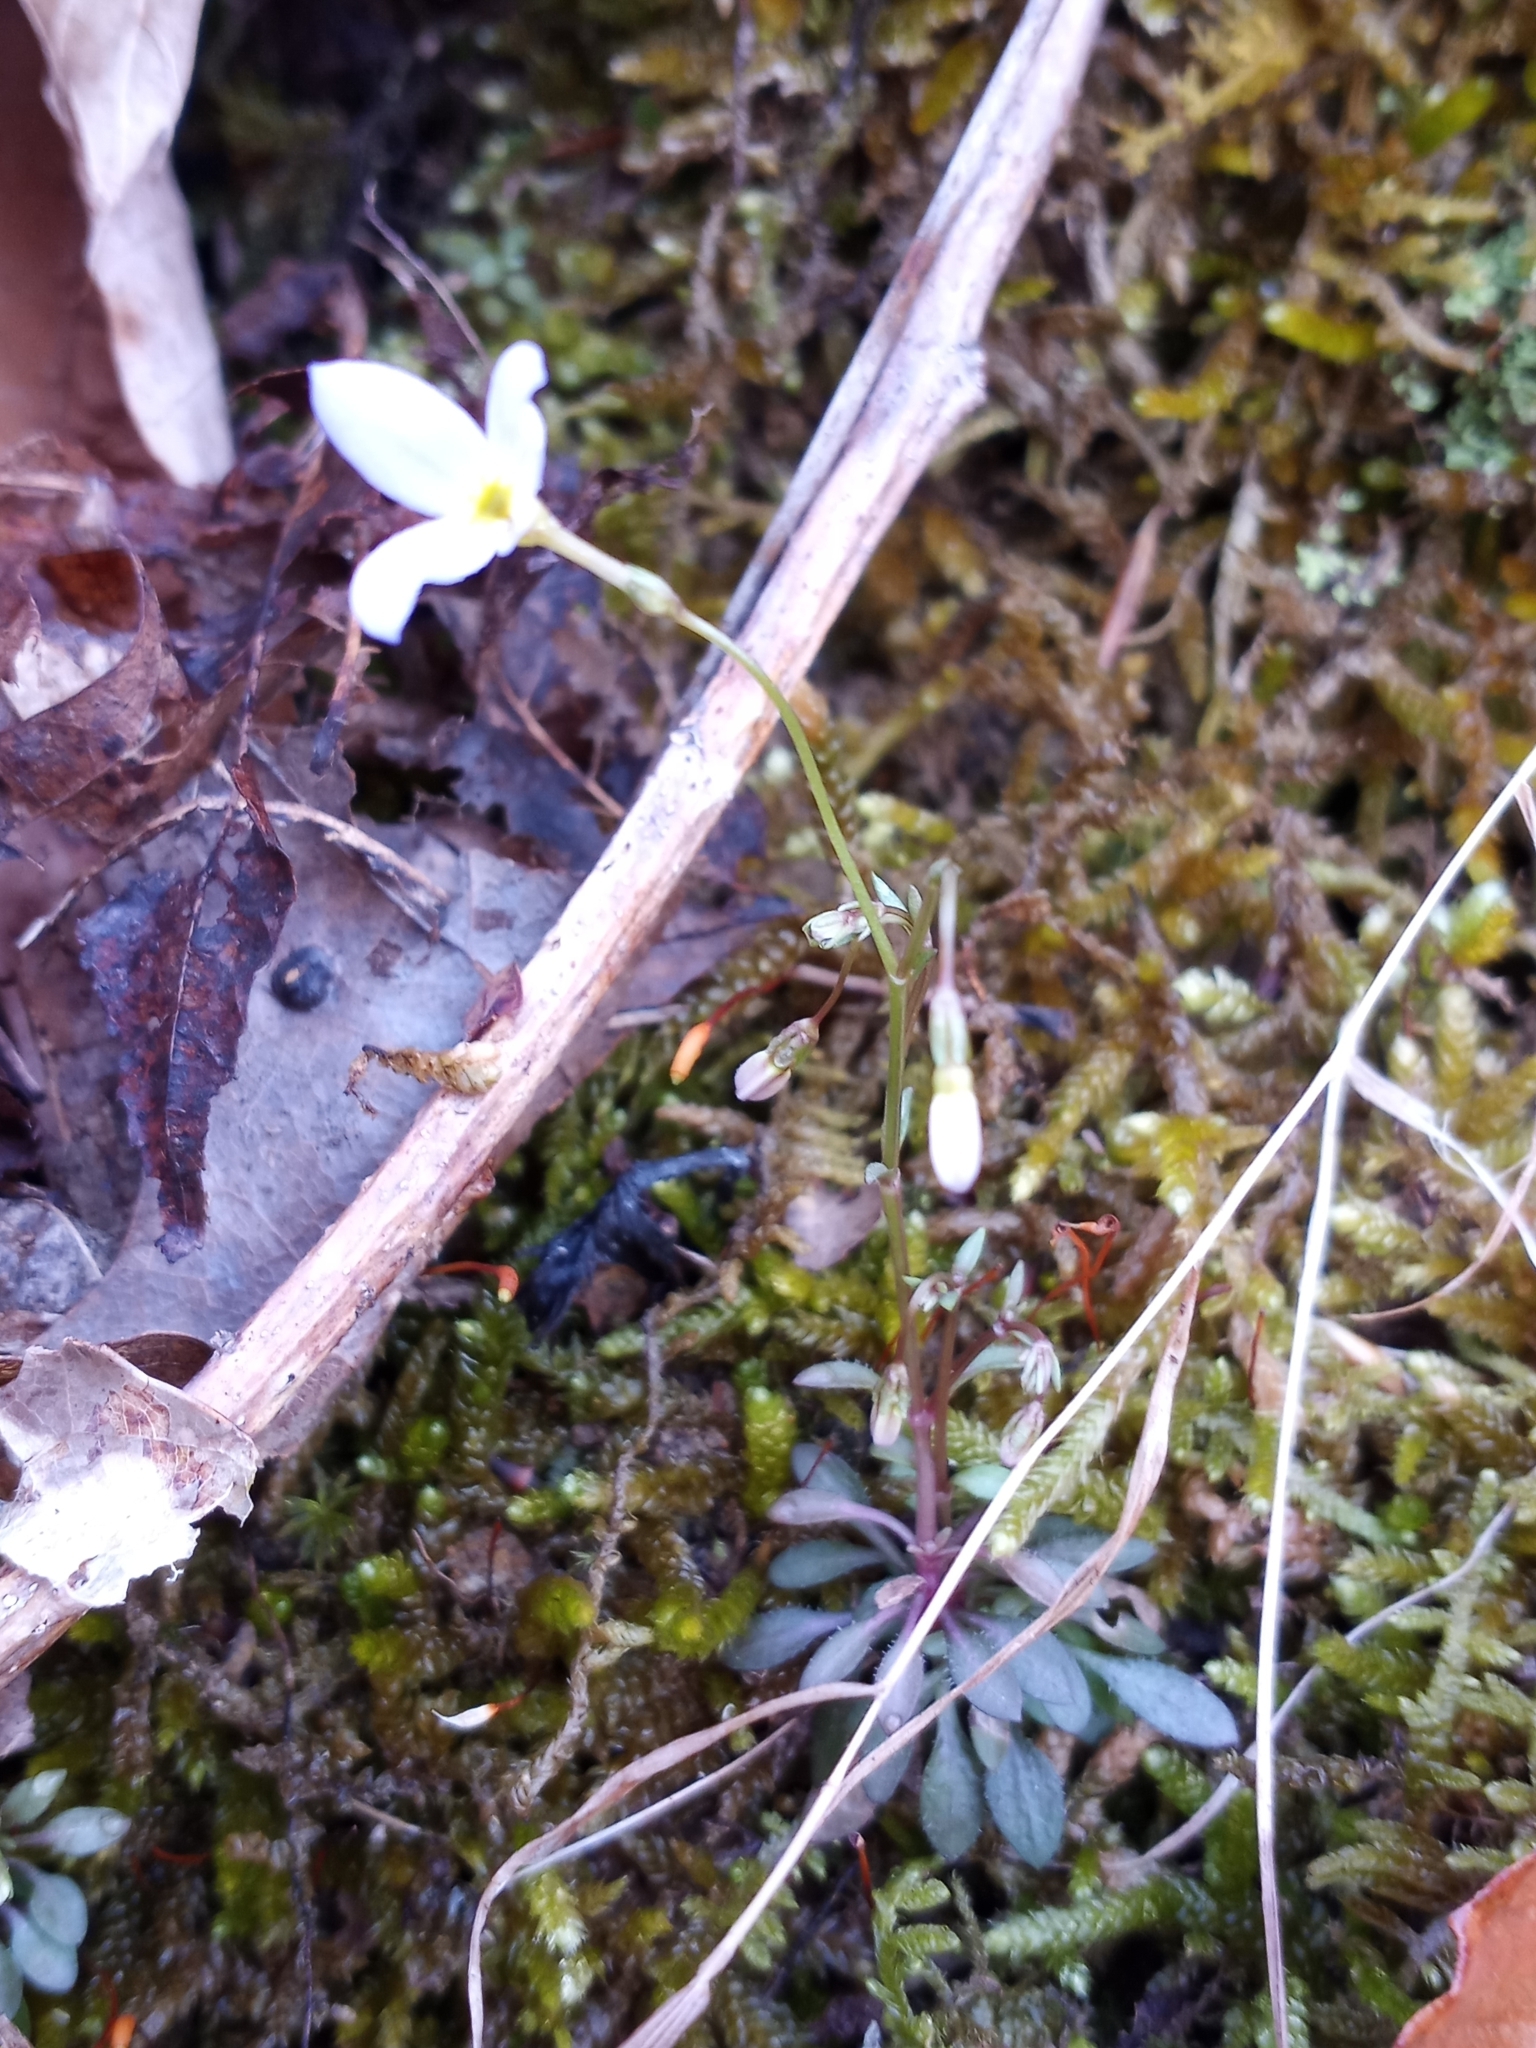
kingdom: Plantae
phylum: Tracheophyta
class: Magnoliopsida
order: Gentianales
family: Rubiaceae
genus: Houstonia
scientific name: Houstonia caerulea
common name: Bluets
